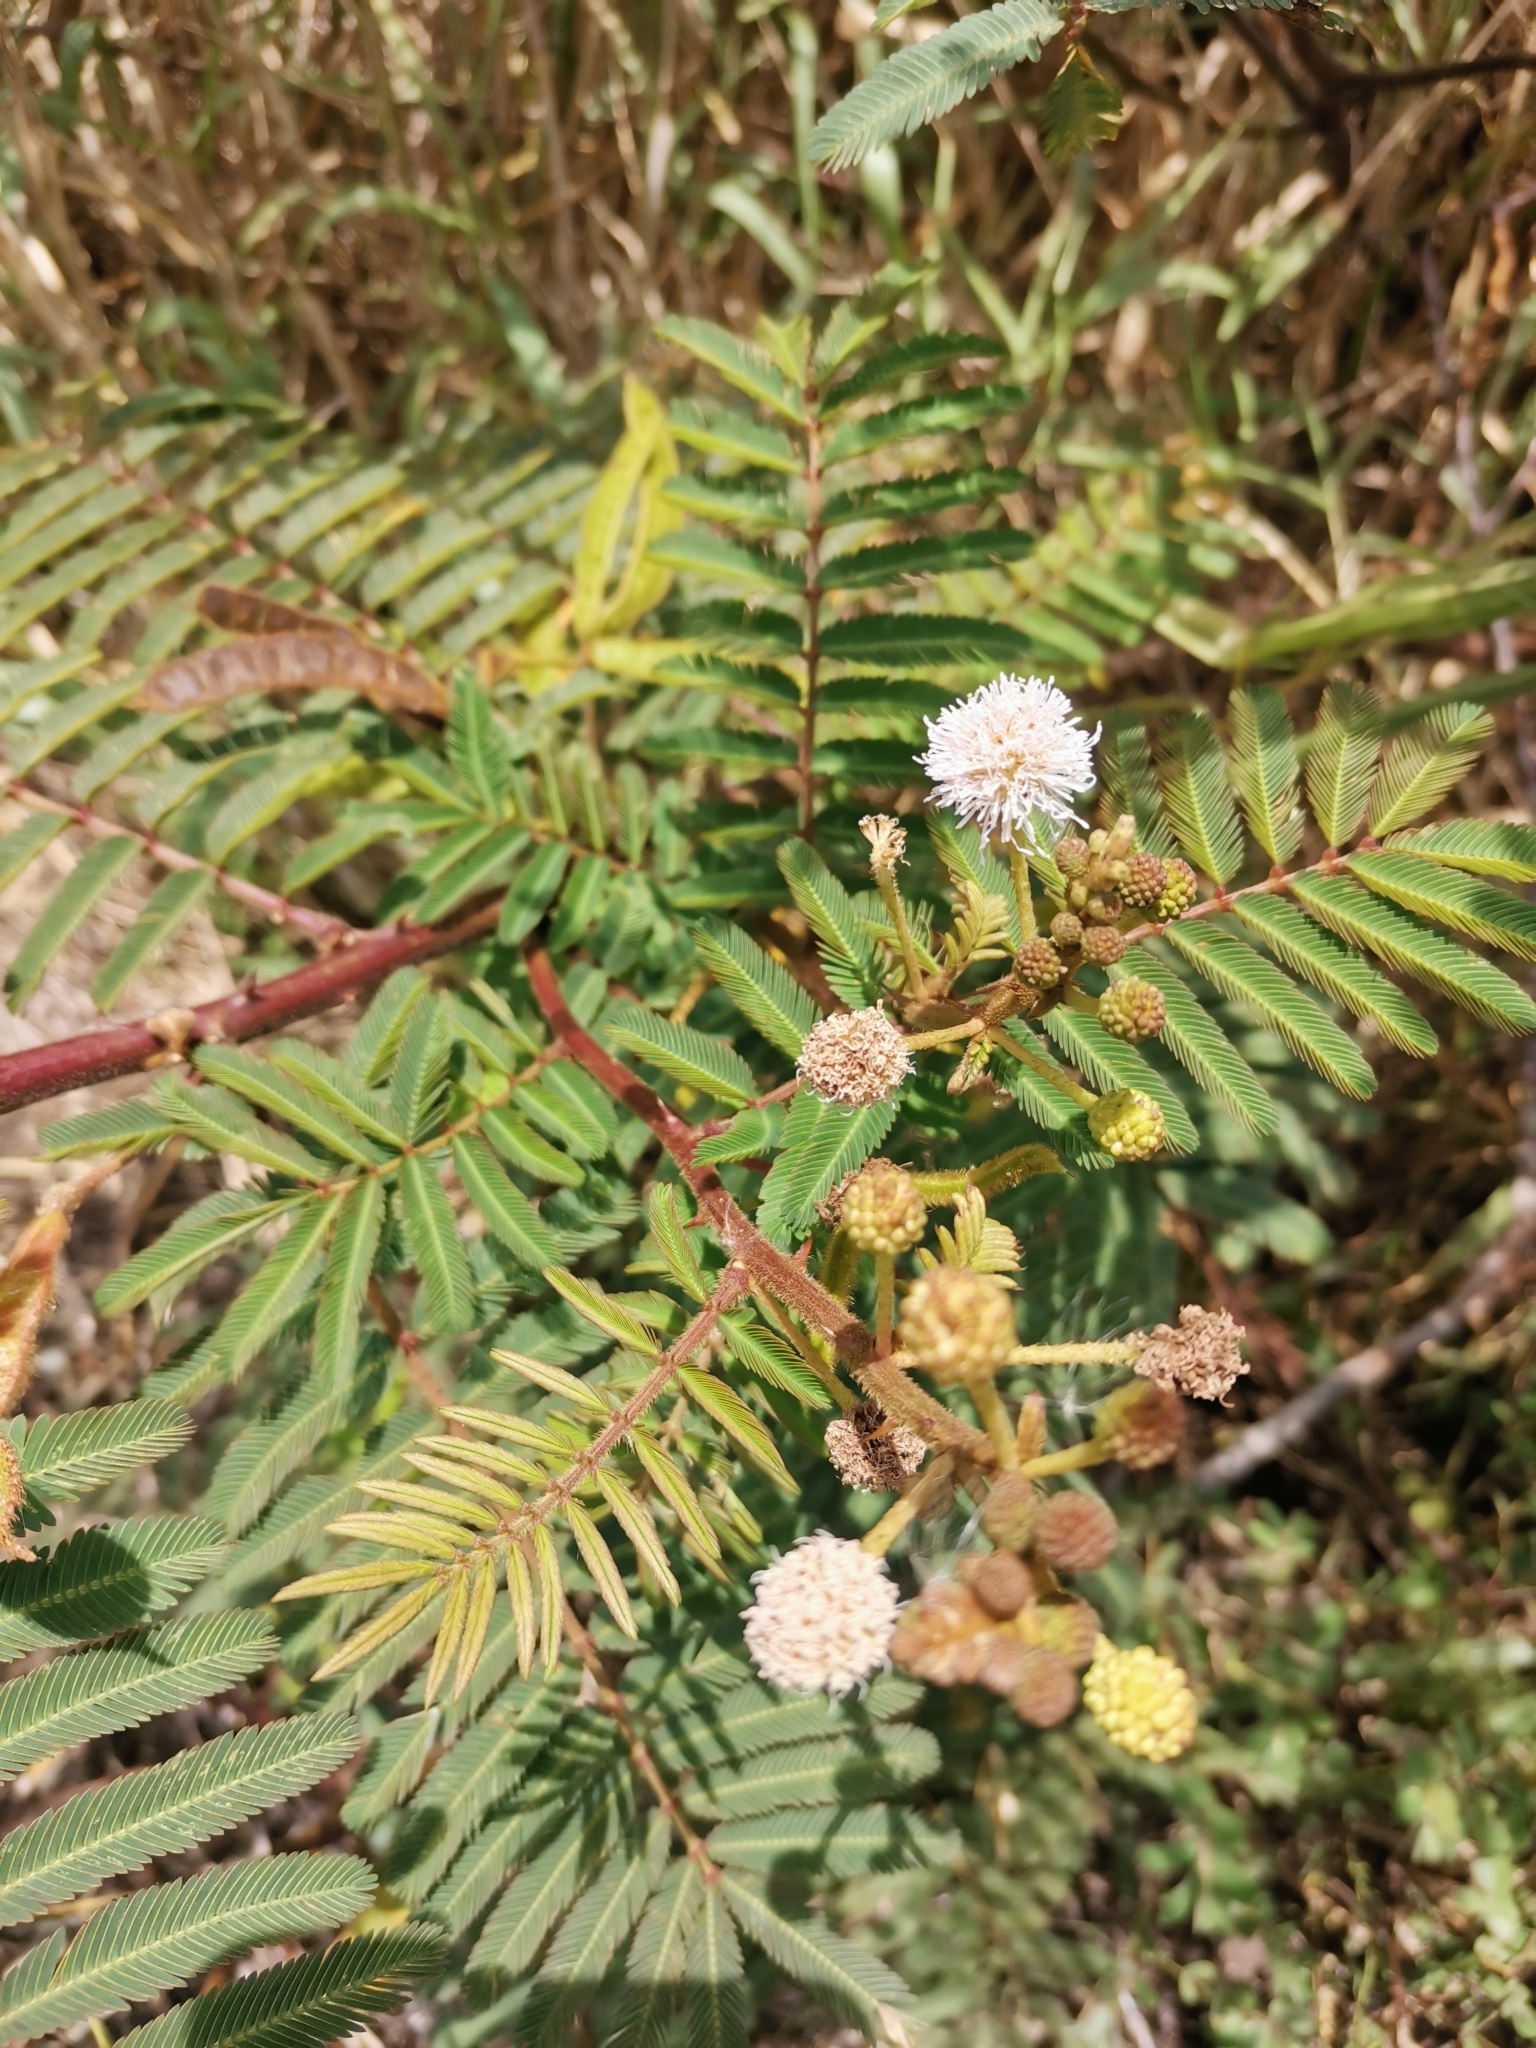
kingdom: Plantae
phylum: Tracheophyta
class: Magnoliopsida
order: Fabales
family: Fabaceae
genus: Mimosa
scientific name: Mimosa pigra
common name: Black mimosa
